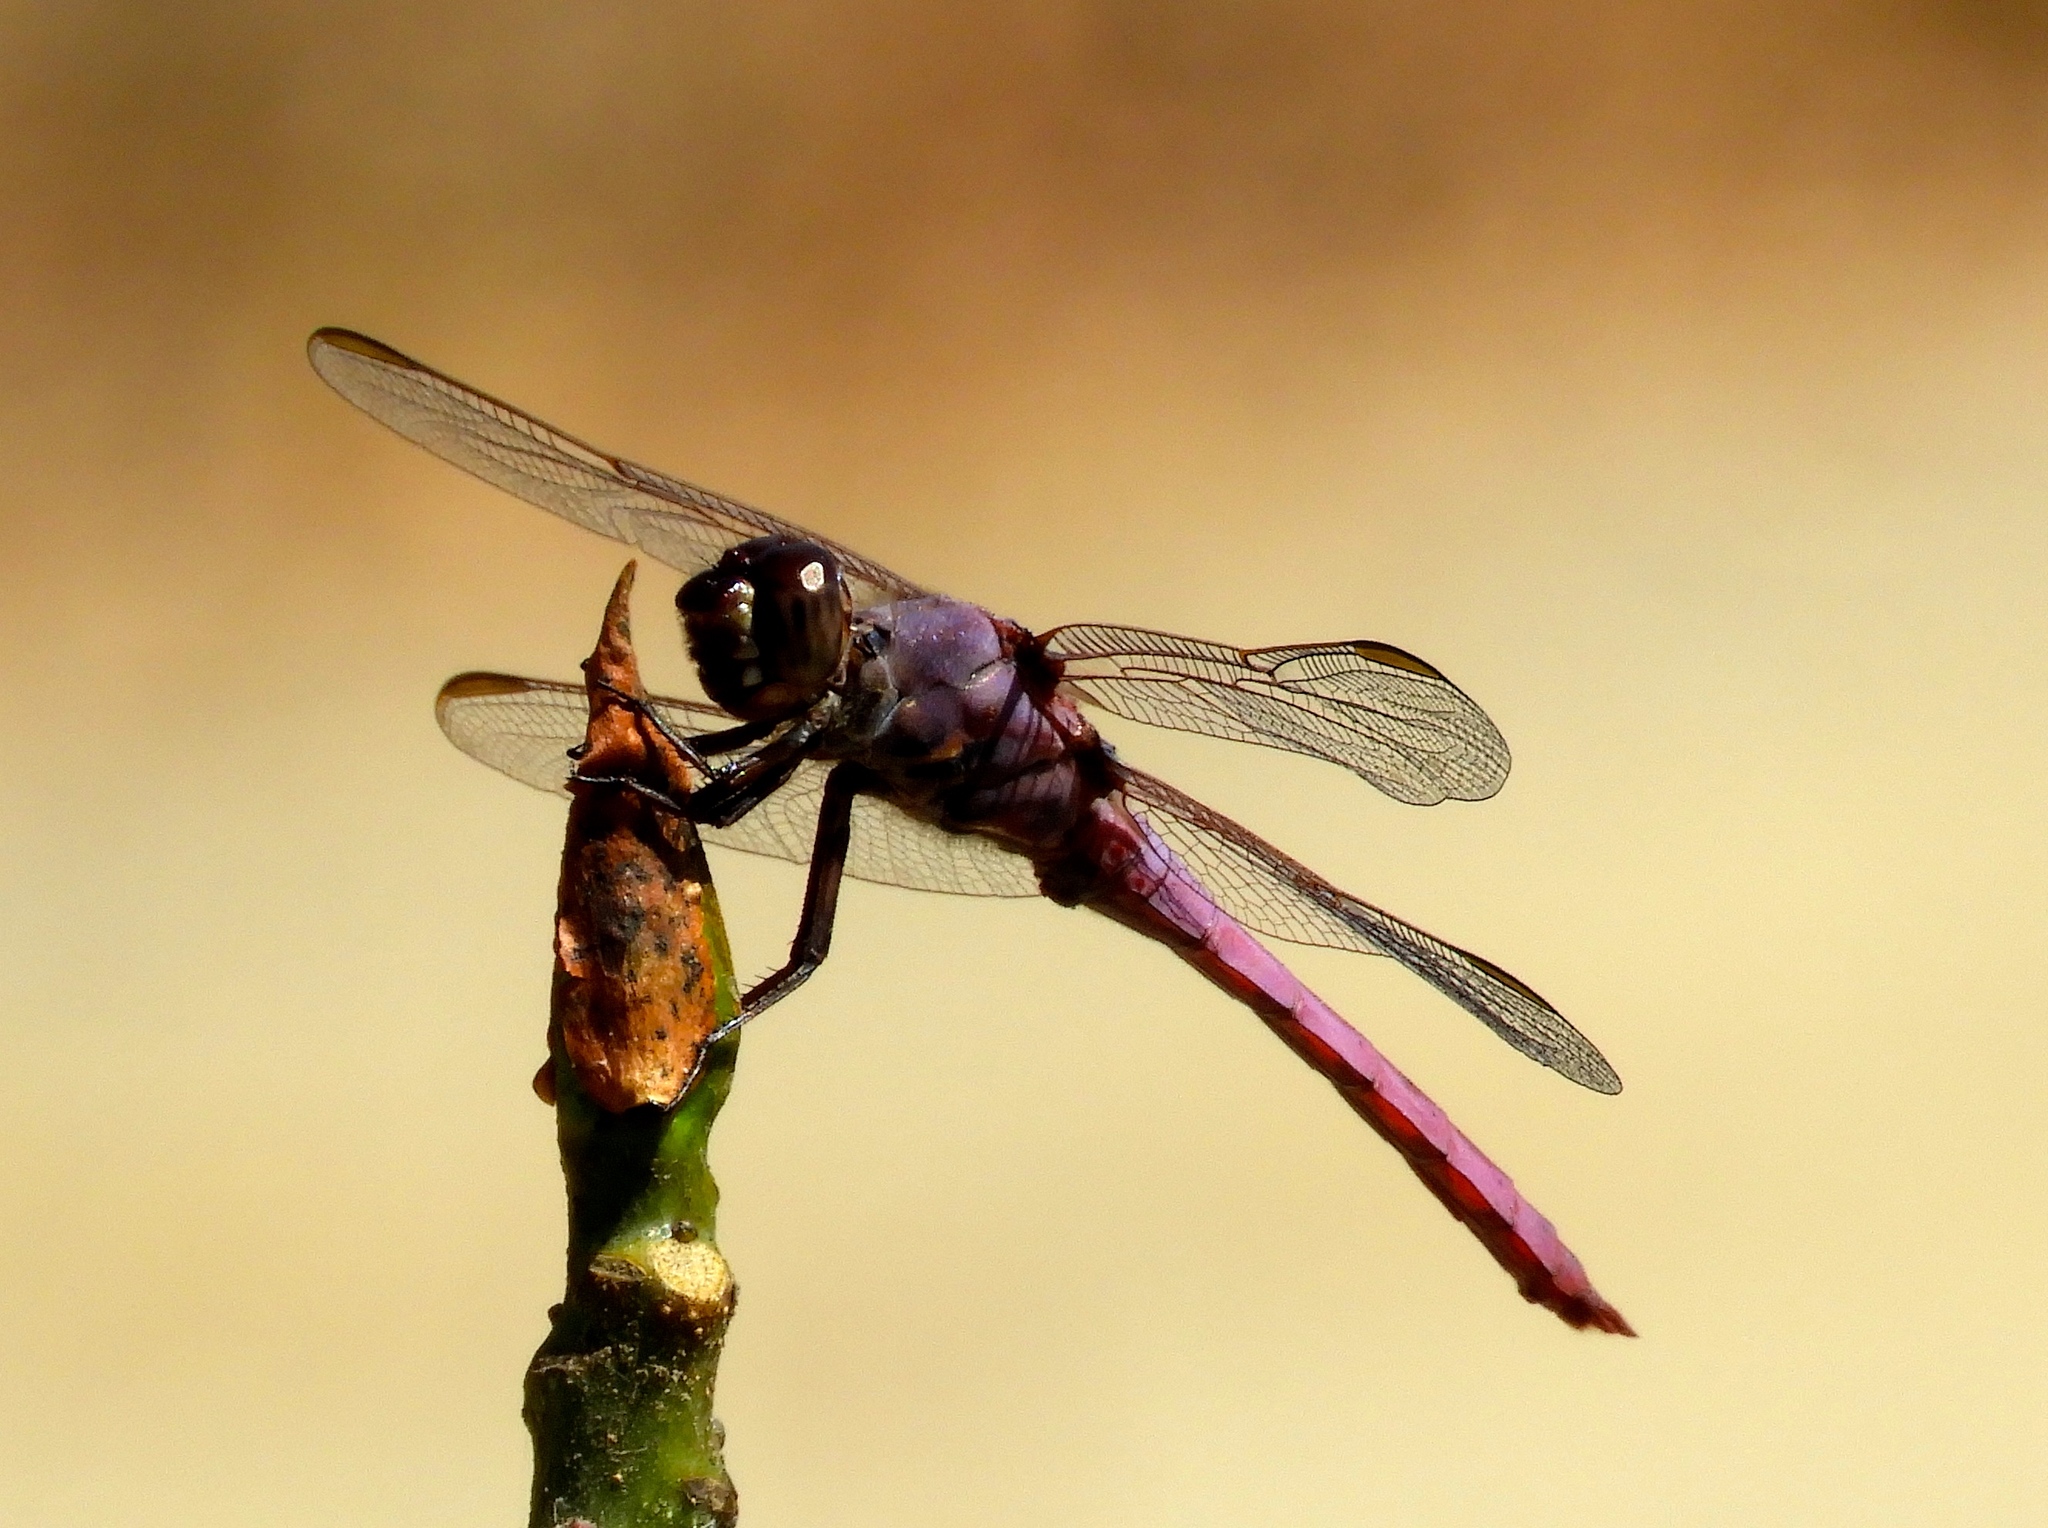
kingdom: Animalia
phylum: Arthropoda
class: Insecta
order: Odonata
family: Libellulidae
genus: Orthemis
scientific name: Orthemis ferruginea
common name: Roseate skimmer
